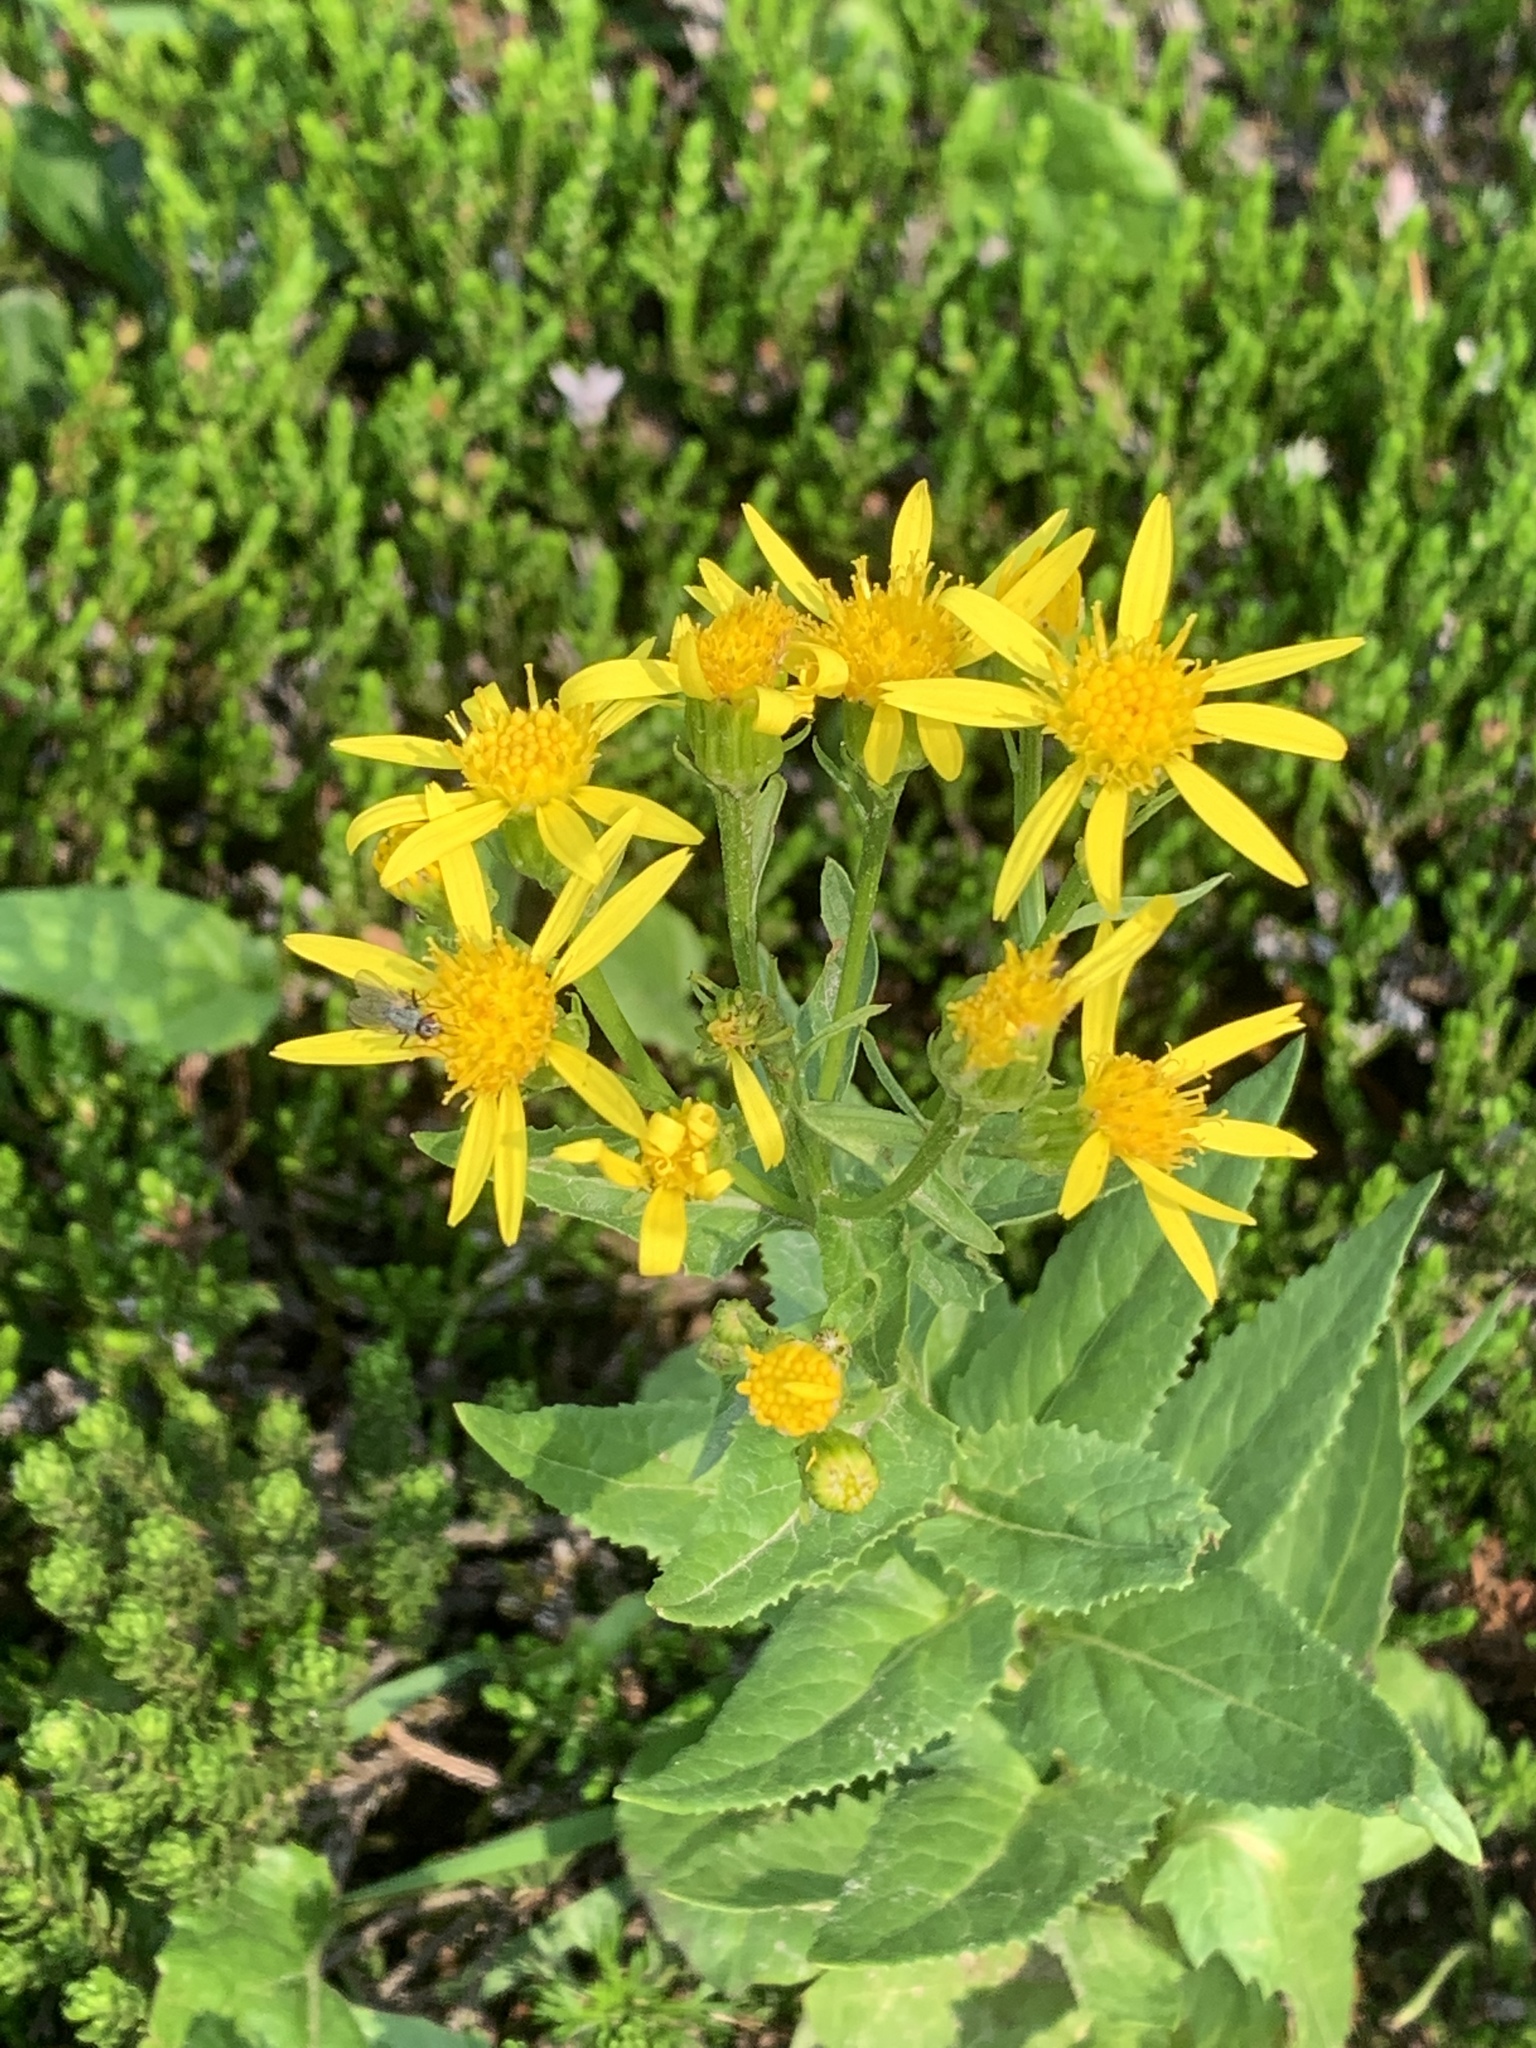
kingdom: Plantae
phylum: Tracheophyta
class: Magnoliopsida
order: Asterales
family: Asteraceae
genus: Senecio
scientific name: Senecio triangularis
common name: Arrowleaf butterweed
